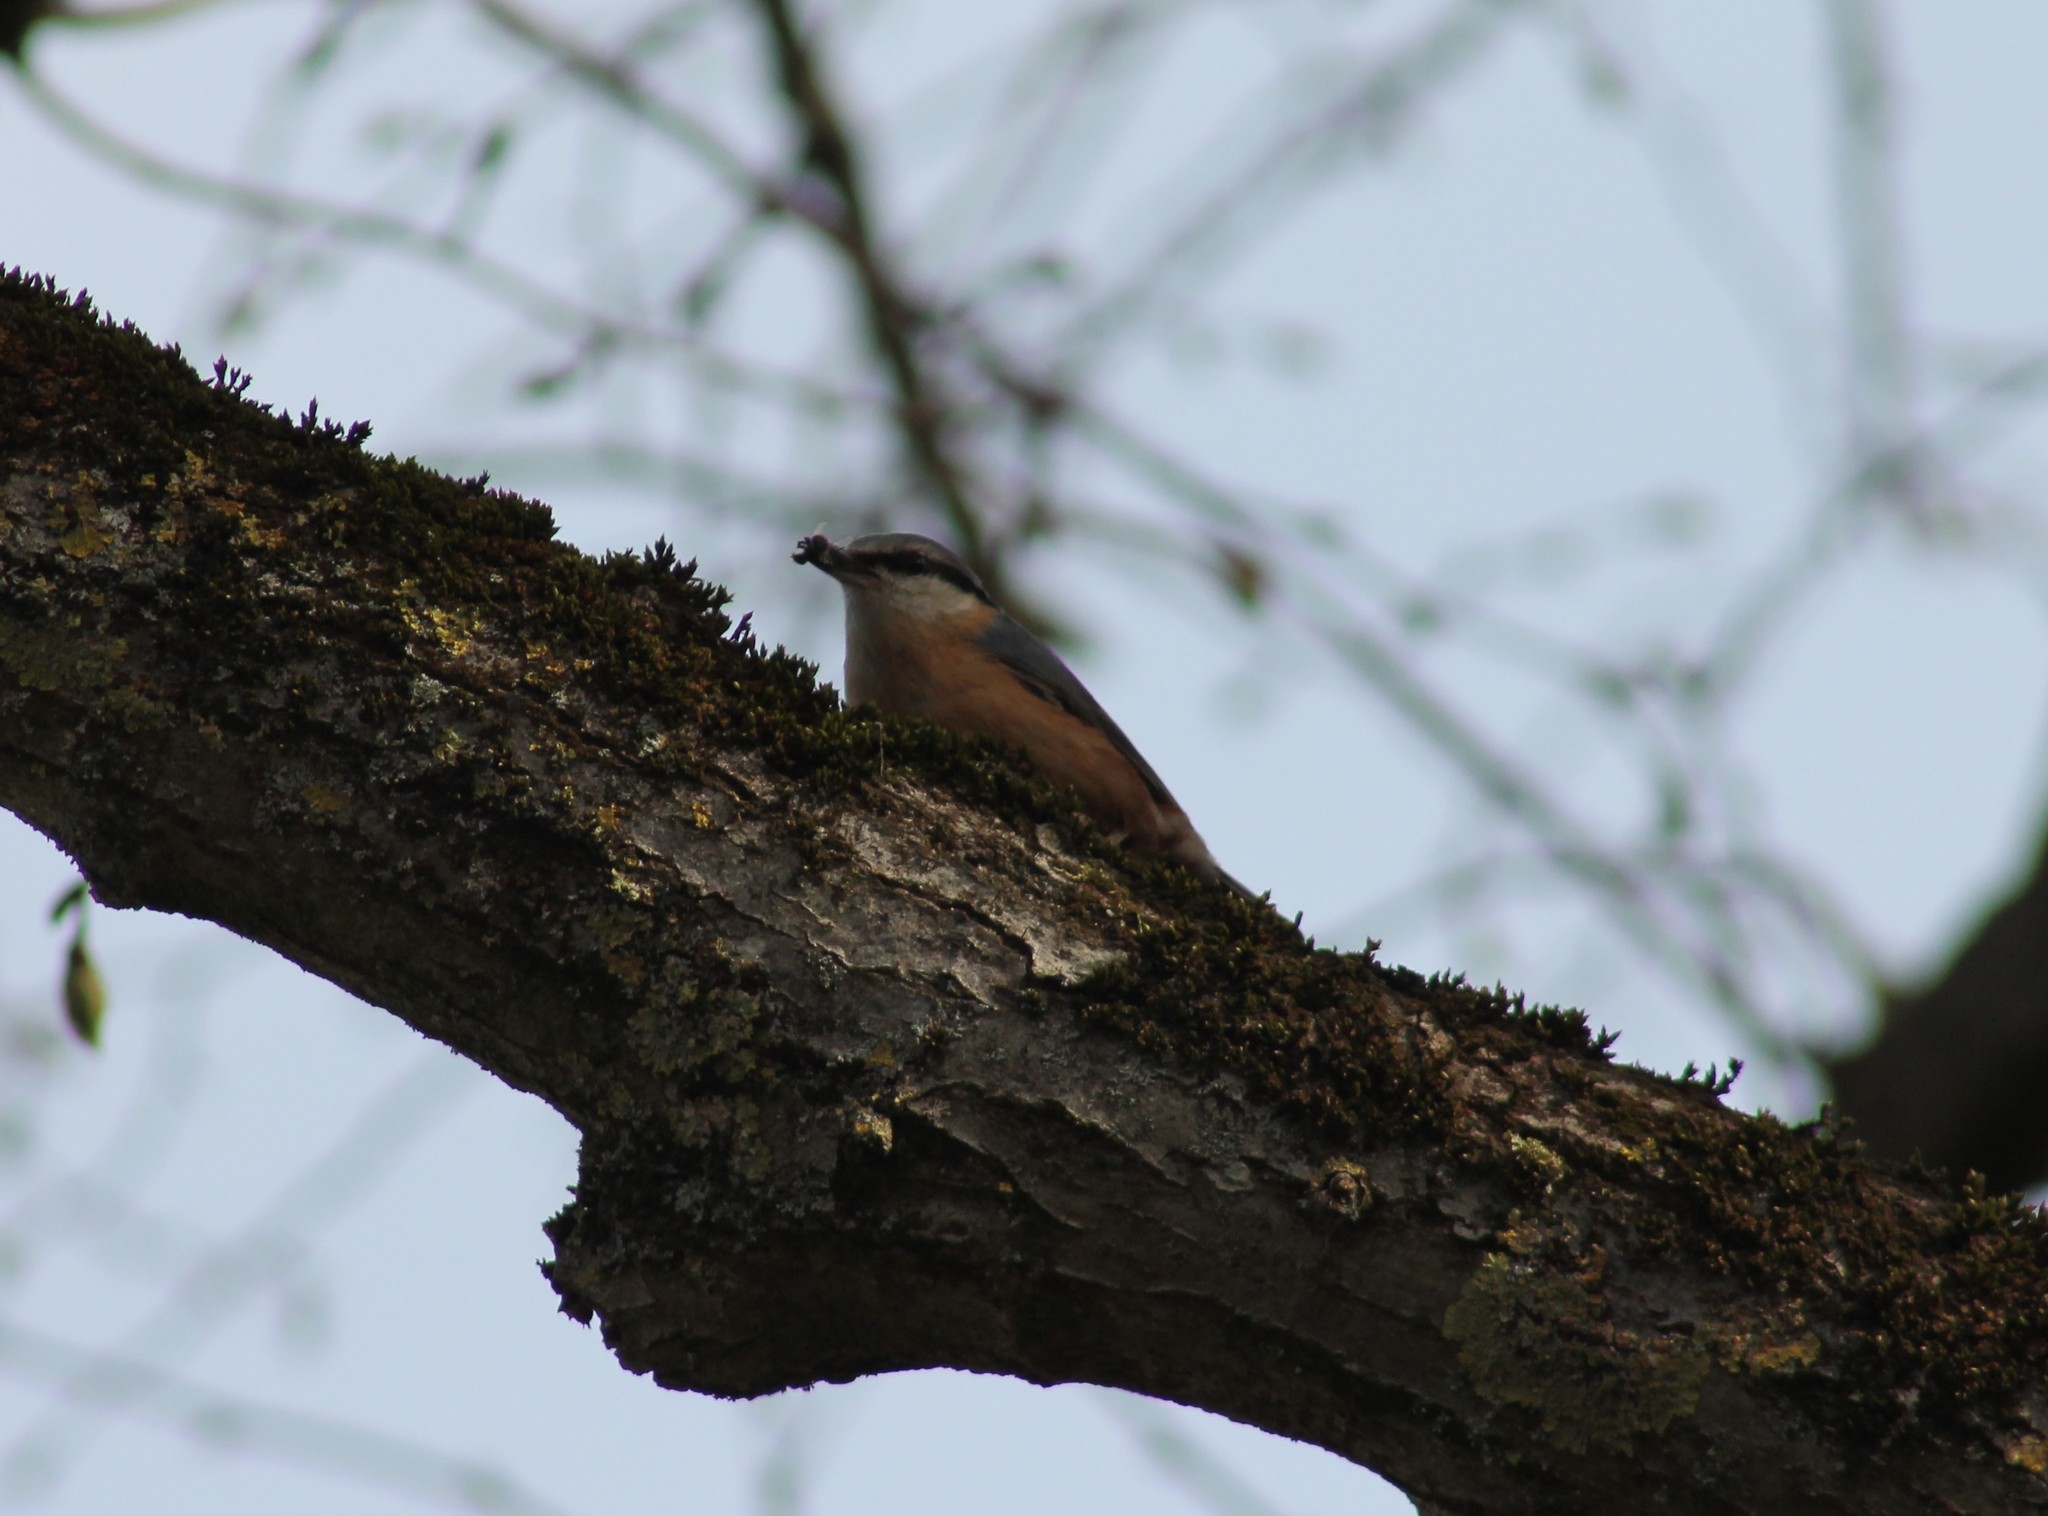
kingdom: Animalia
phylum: Chordata
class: Aves
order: Passeriformes
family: Sittidae
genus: Sitta
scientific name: Sitta europaea
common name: Eurasian nuthatch
